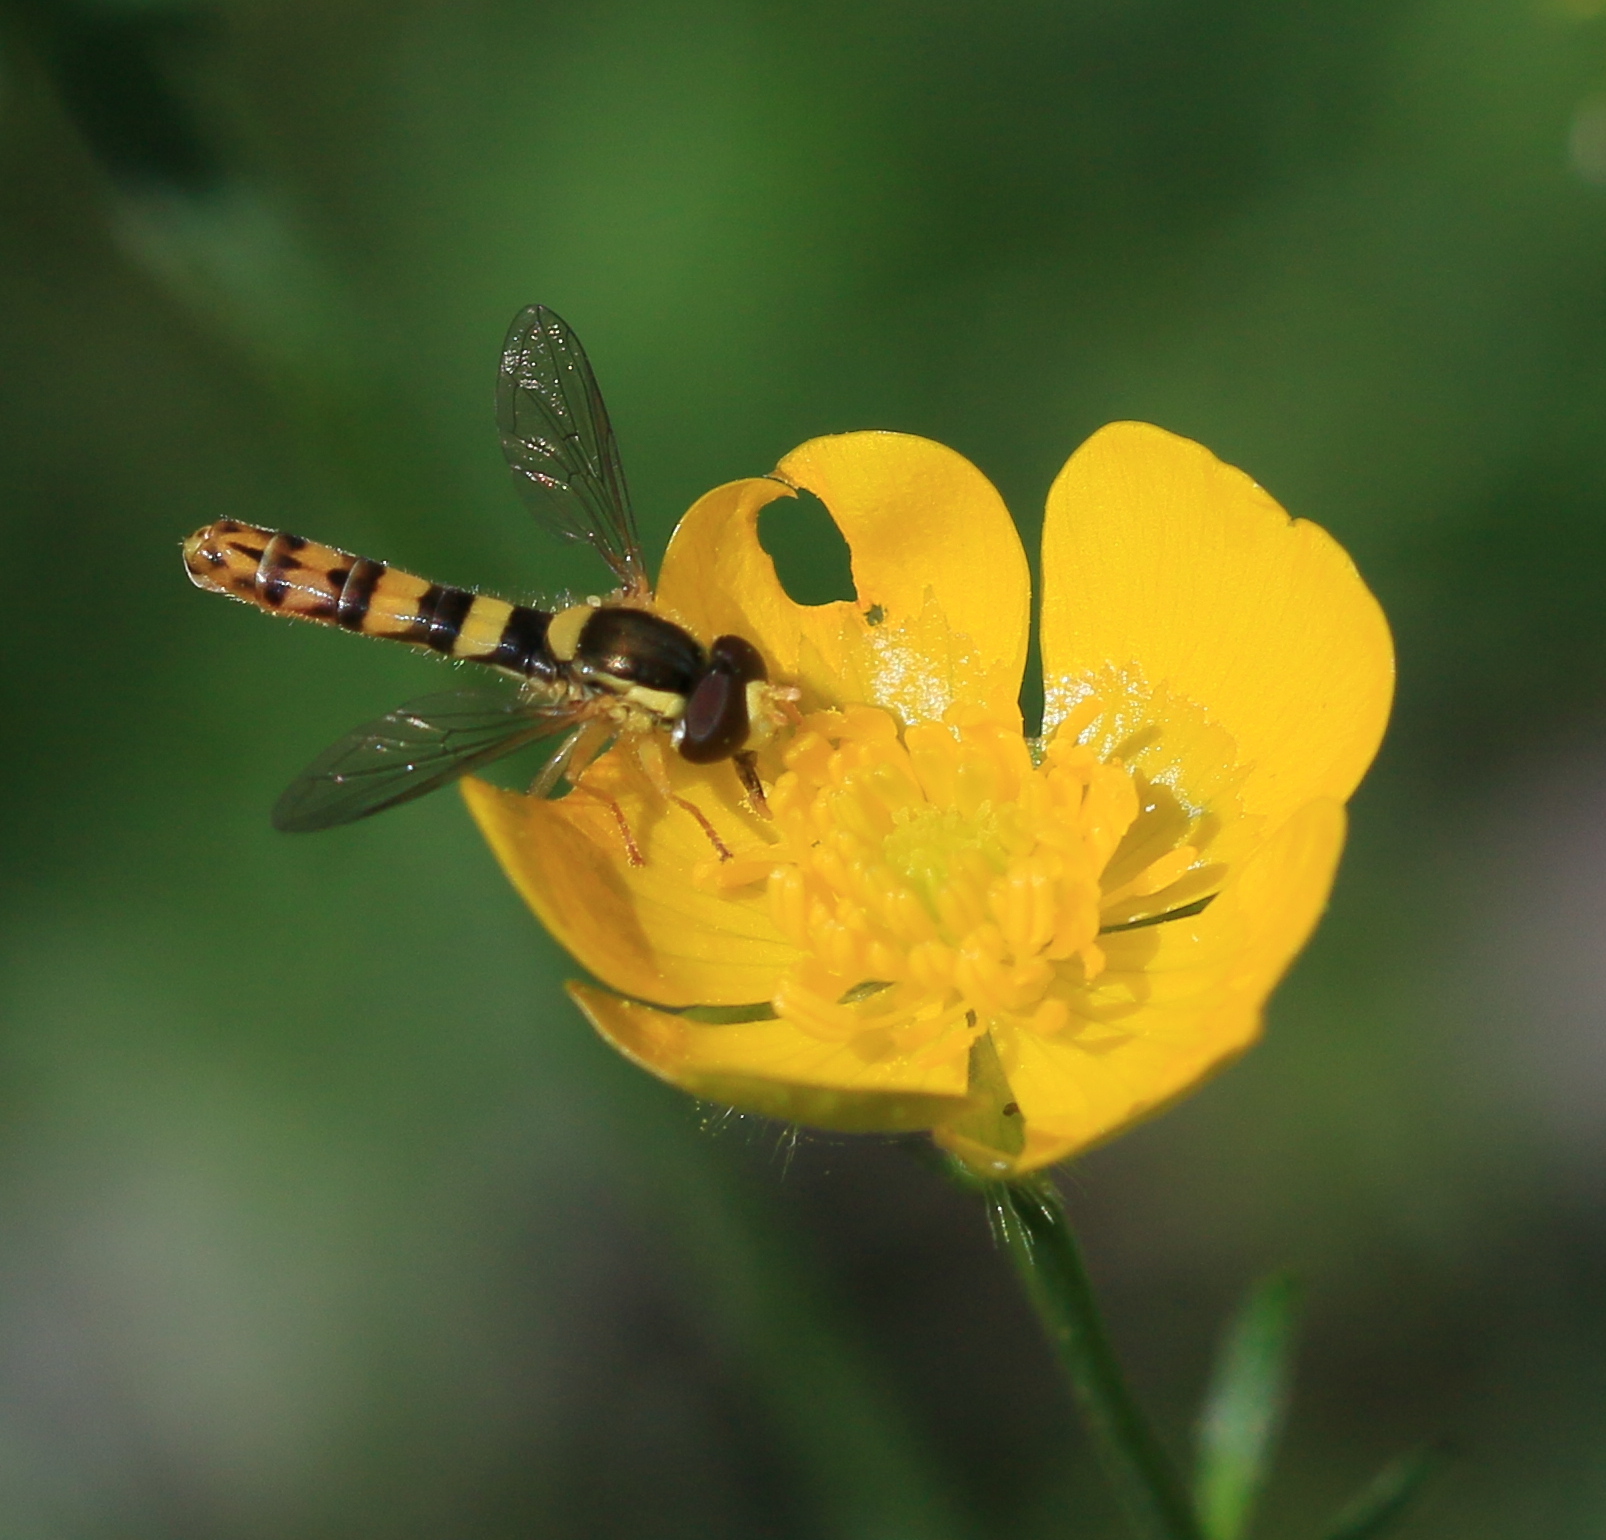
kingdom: Animalia
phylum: Arthropoda
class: Insecta
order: Diptera
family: Syrphidae
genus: Sphaerophoria
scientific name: Sphaerophoria scripta
